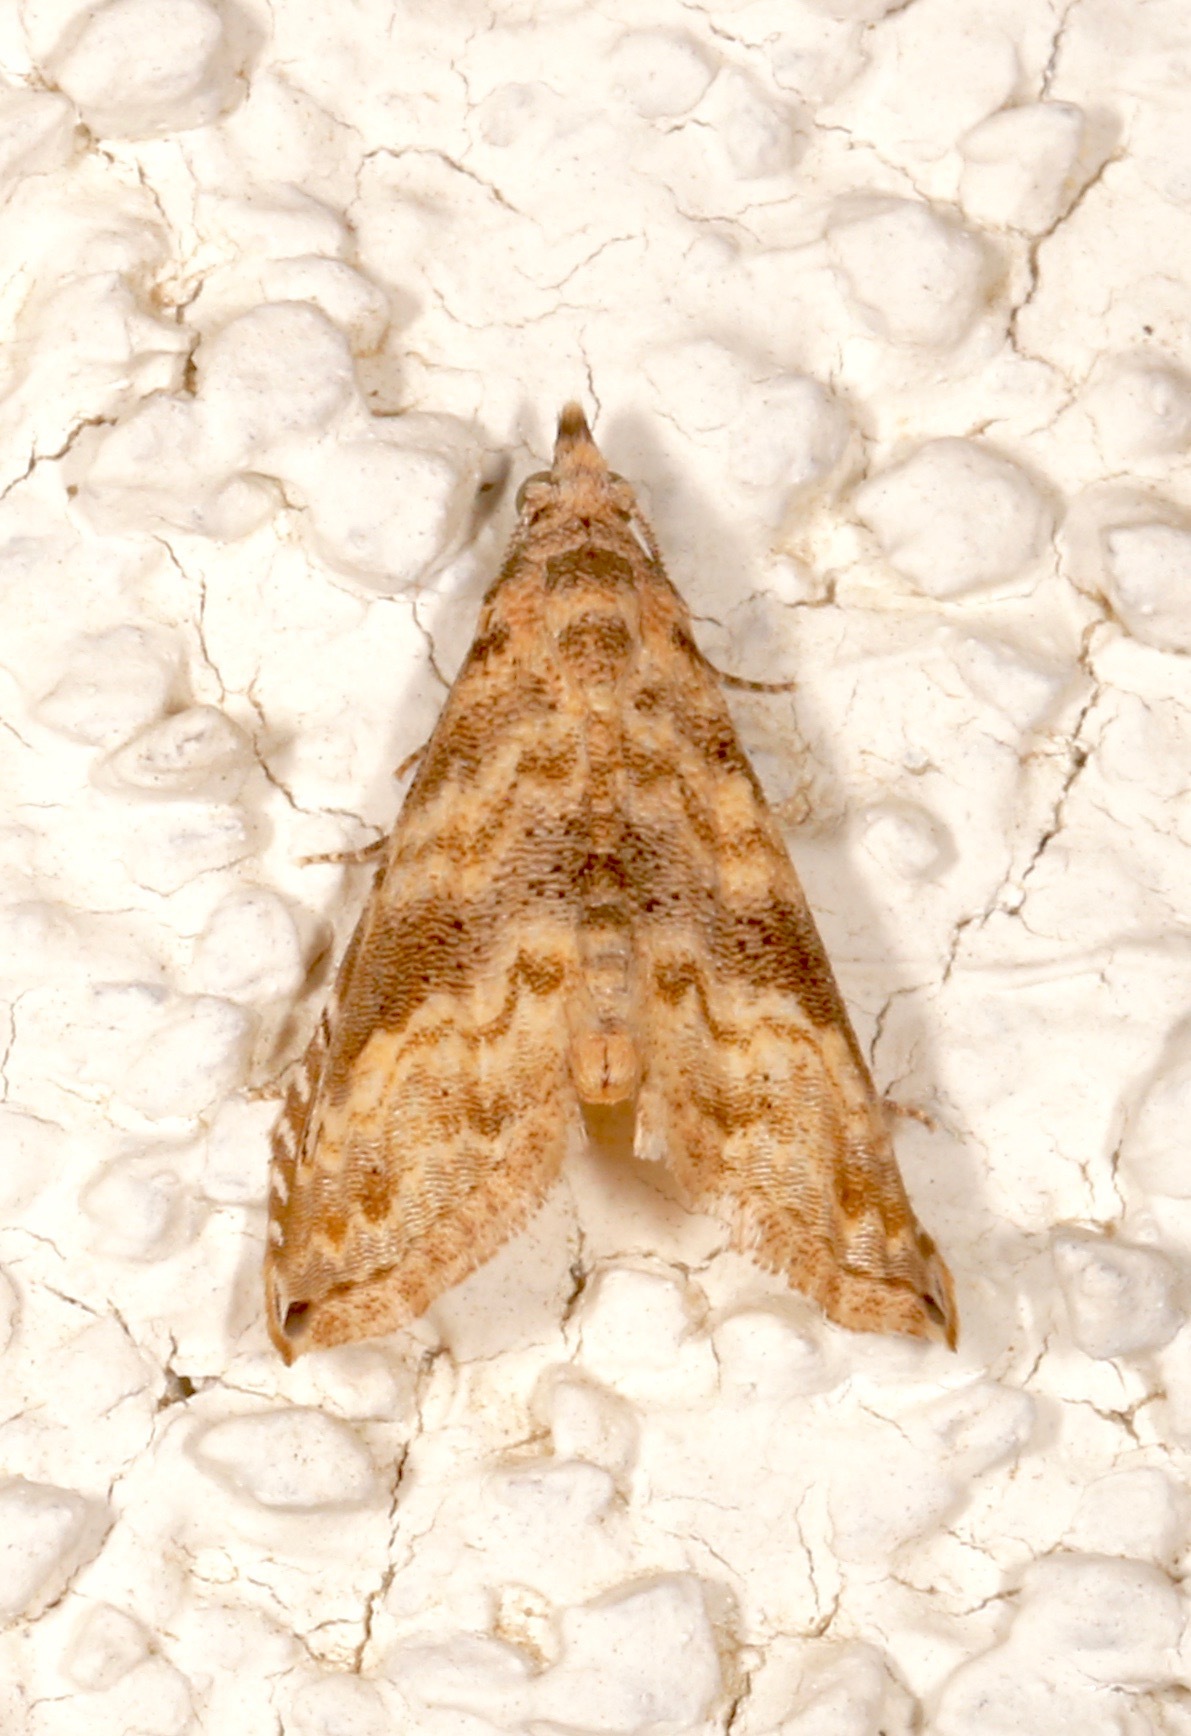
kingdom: Animalia
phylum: Arthropoda
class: Insecta
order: Lepidoptera
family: Noctuidae
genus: Phobolosia
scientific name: Phobolosia anfracta
